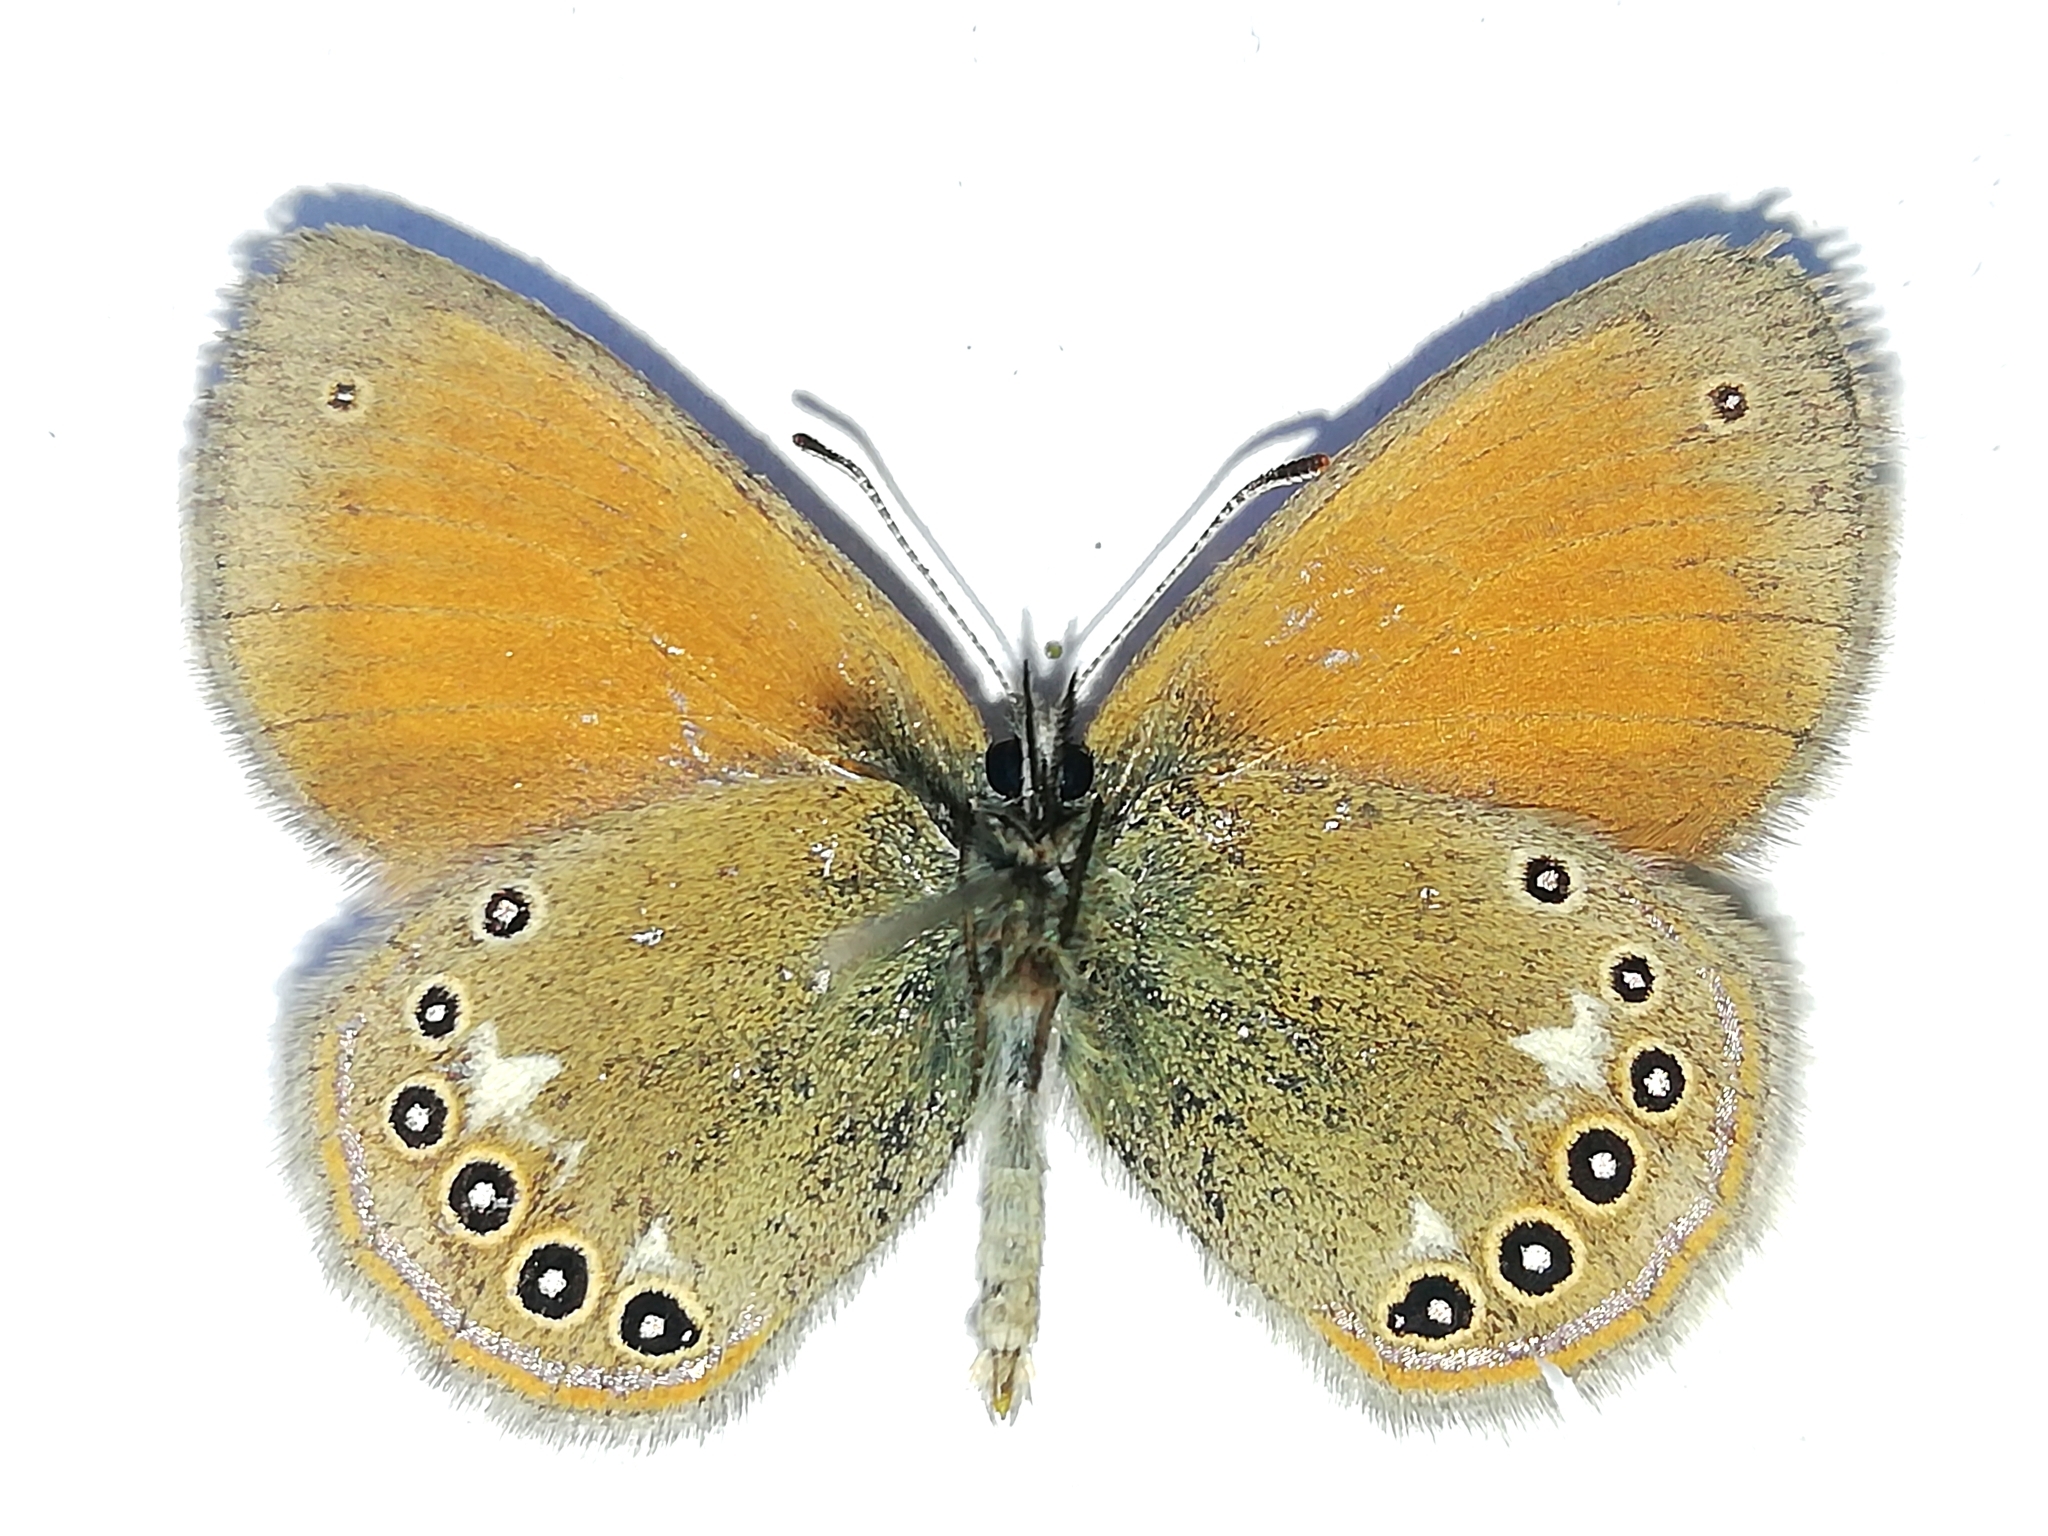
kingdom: Animalia
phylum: Arthropoda
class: Insecta
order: Lepidoptera
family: Nymphalidae
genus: Coenonympha
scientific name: Coenonympha iphis
